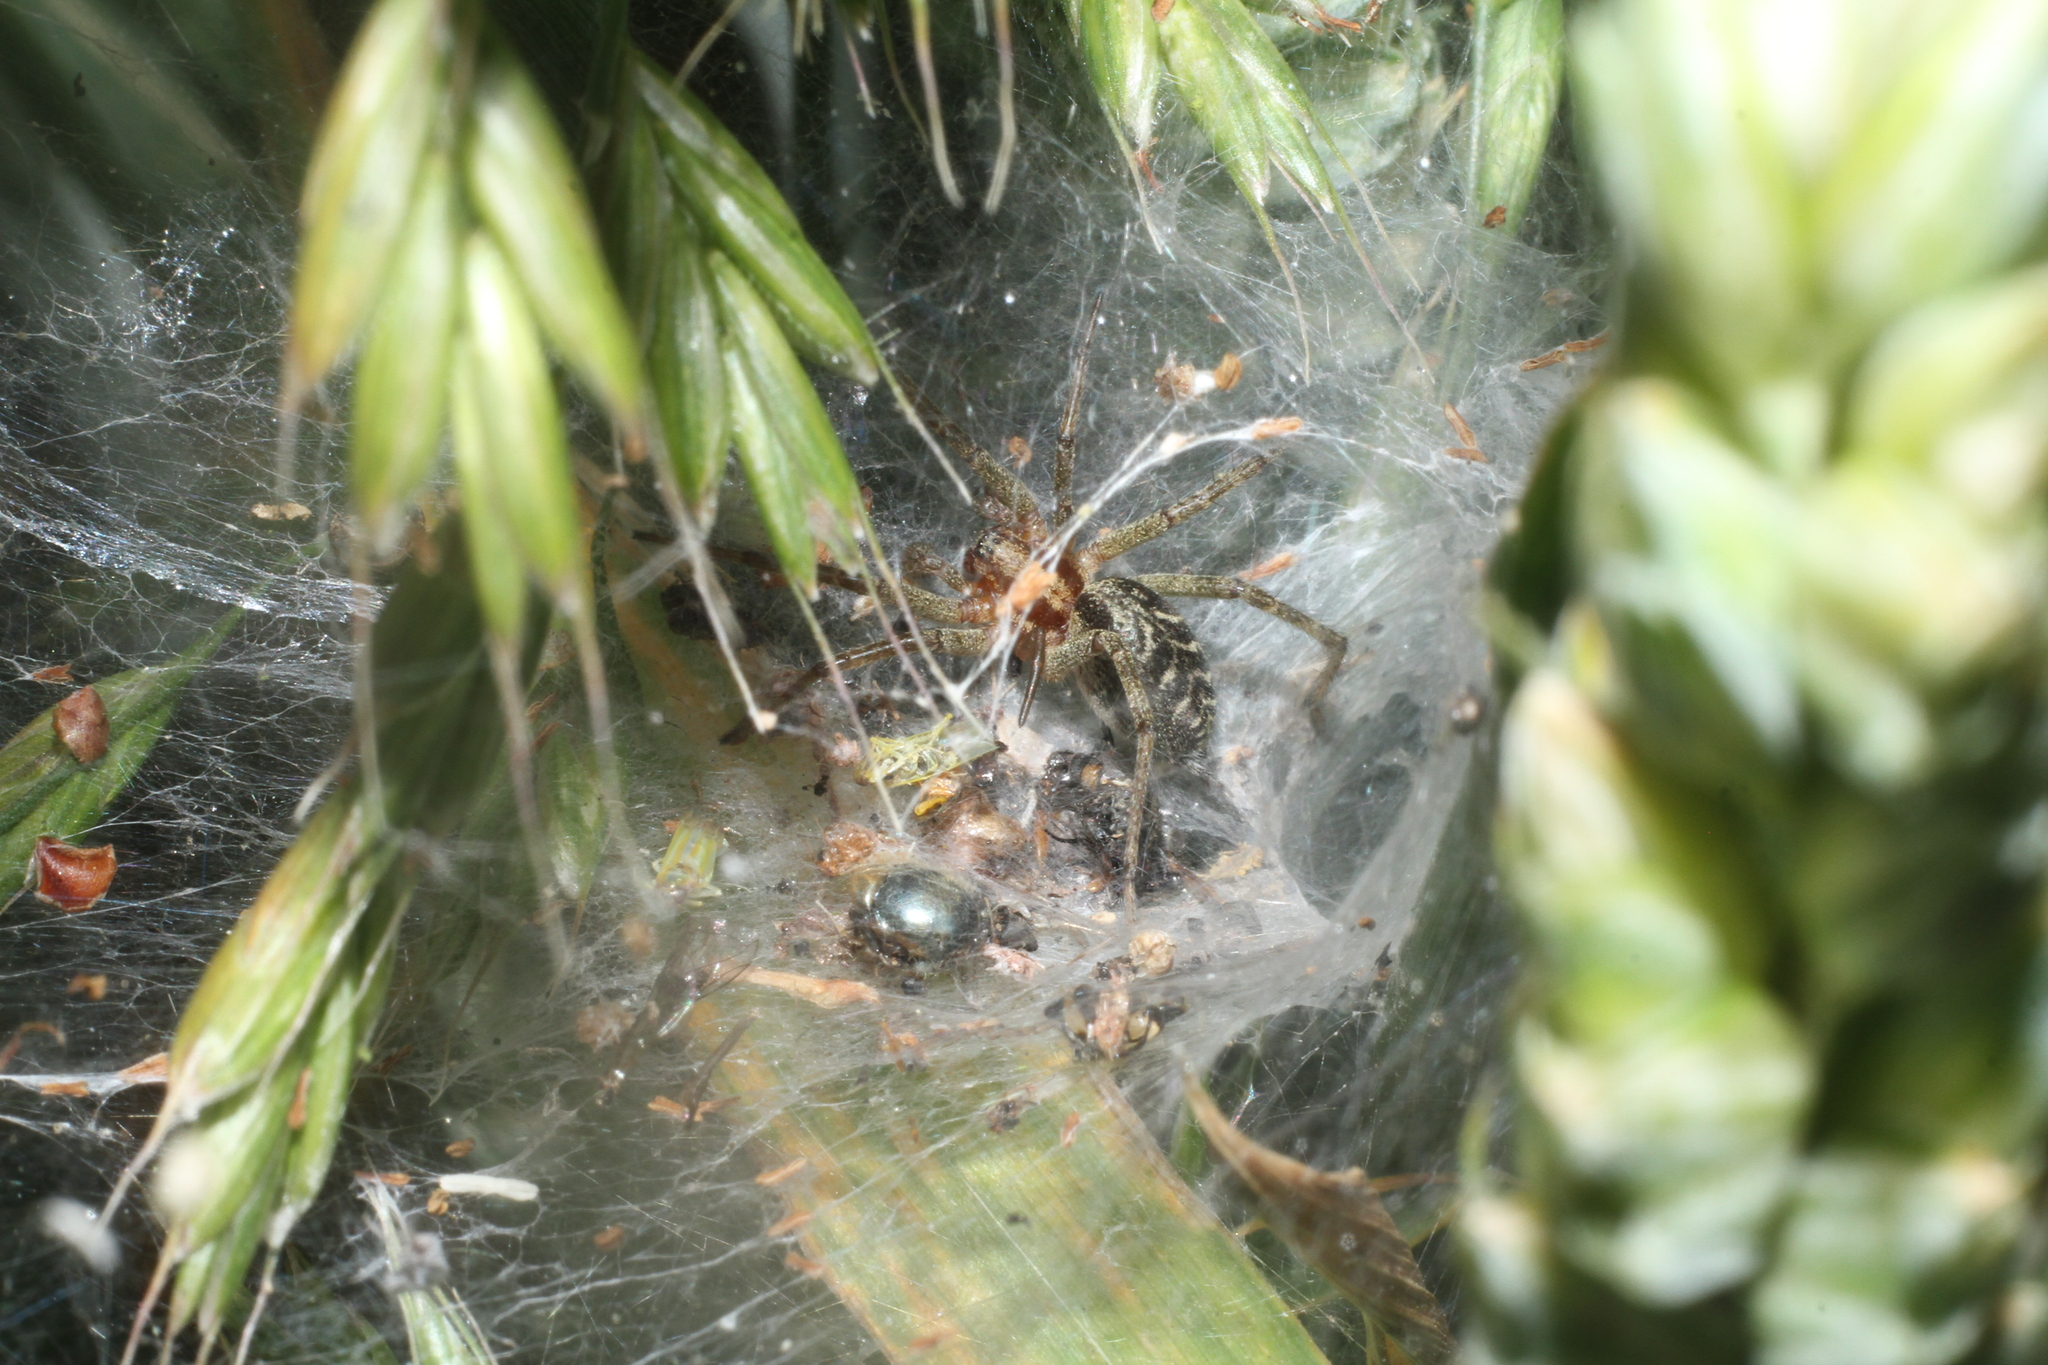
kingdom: Animalia
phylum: Arthropoda
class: Arachnida
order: Araneae
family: Agelenidae
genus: Agelena
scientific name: Agelena labyrinthica
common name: Labyrinth spider
